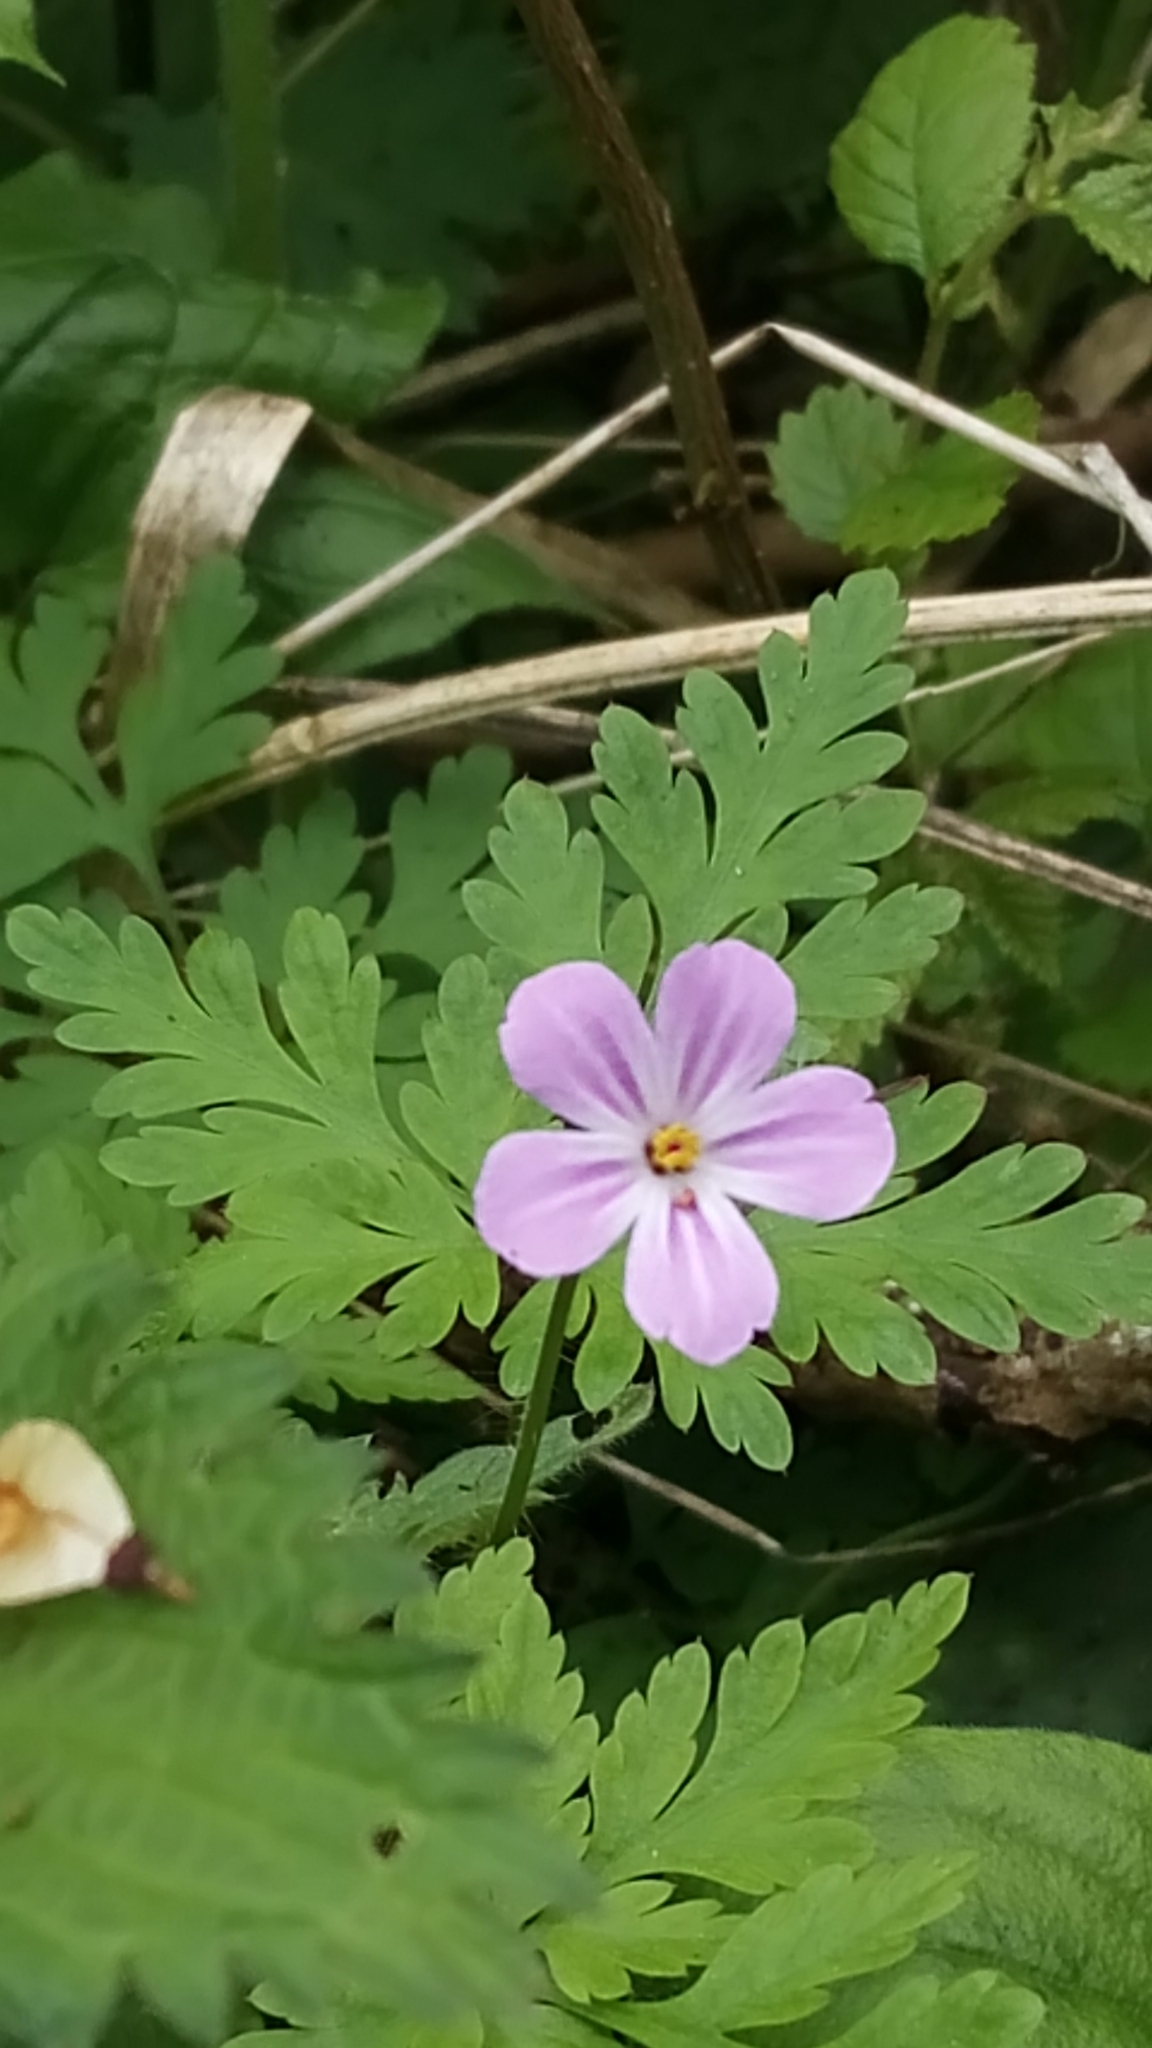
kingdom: Plantae
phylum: Tracheophyta
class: Magnoliopsida
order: Geraniales
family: Geraniaceae
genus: Geranium
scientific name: Geranium robertianum
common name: Herb-robert
